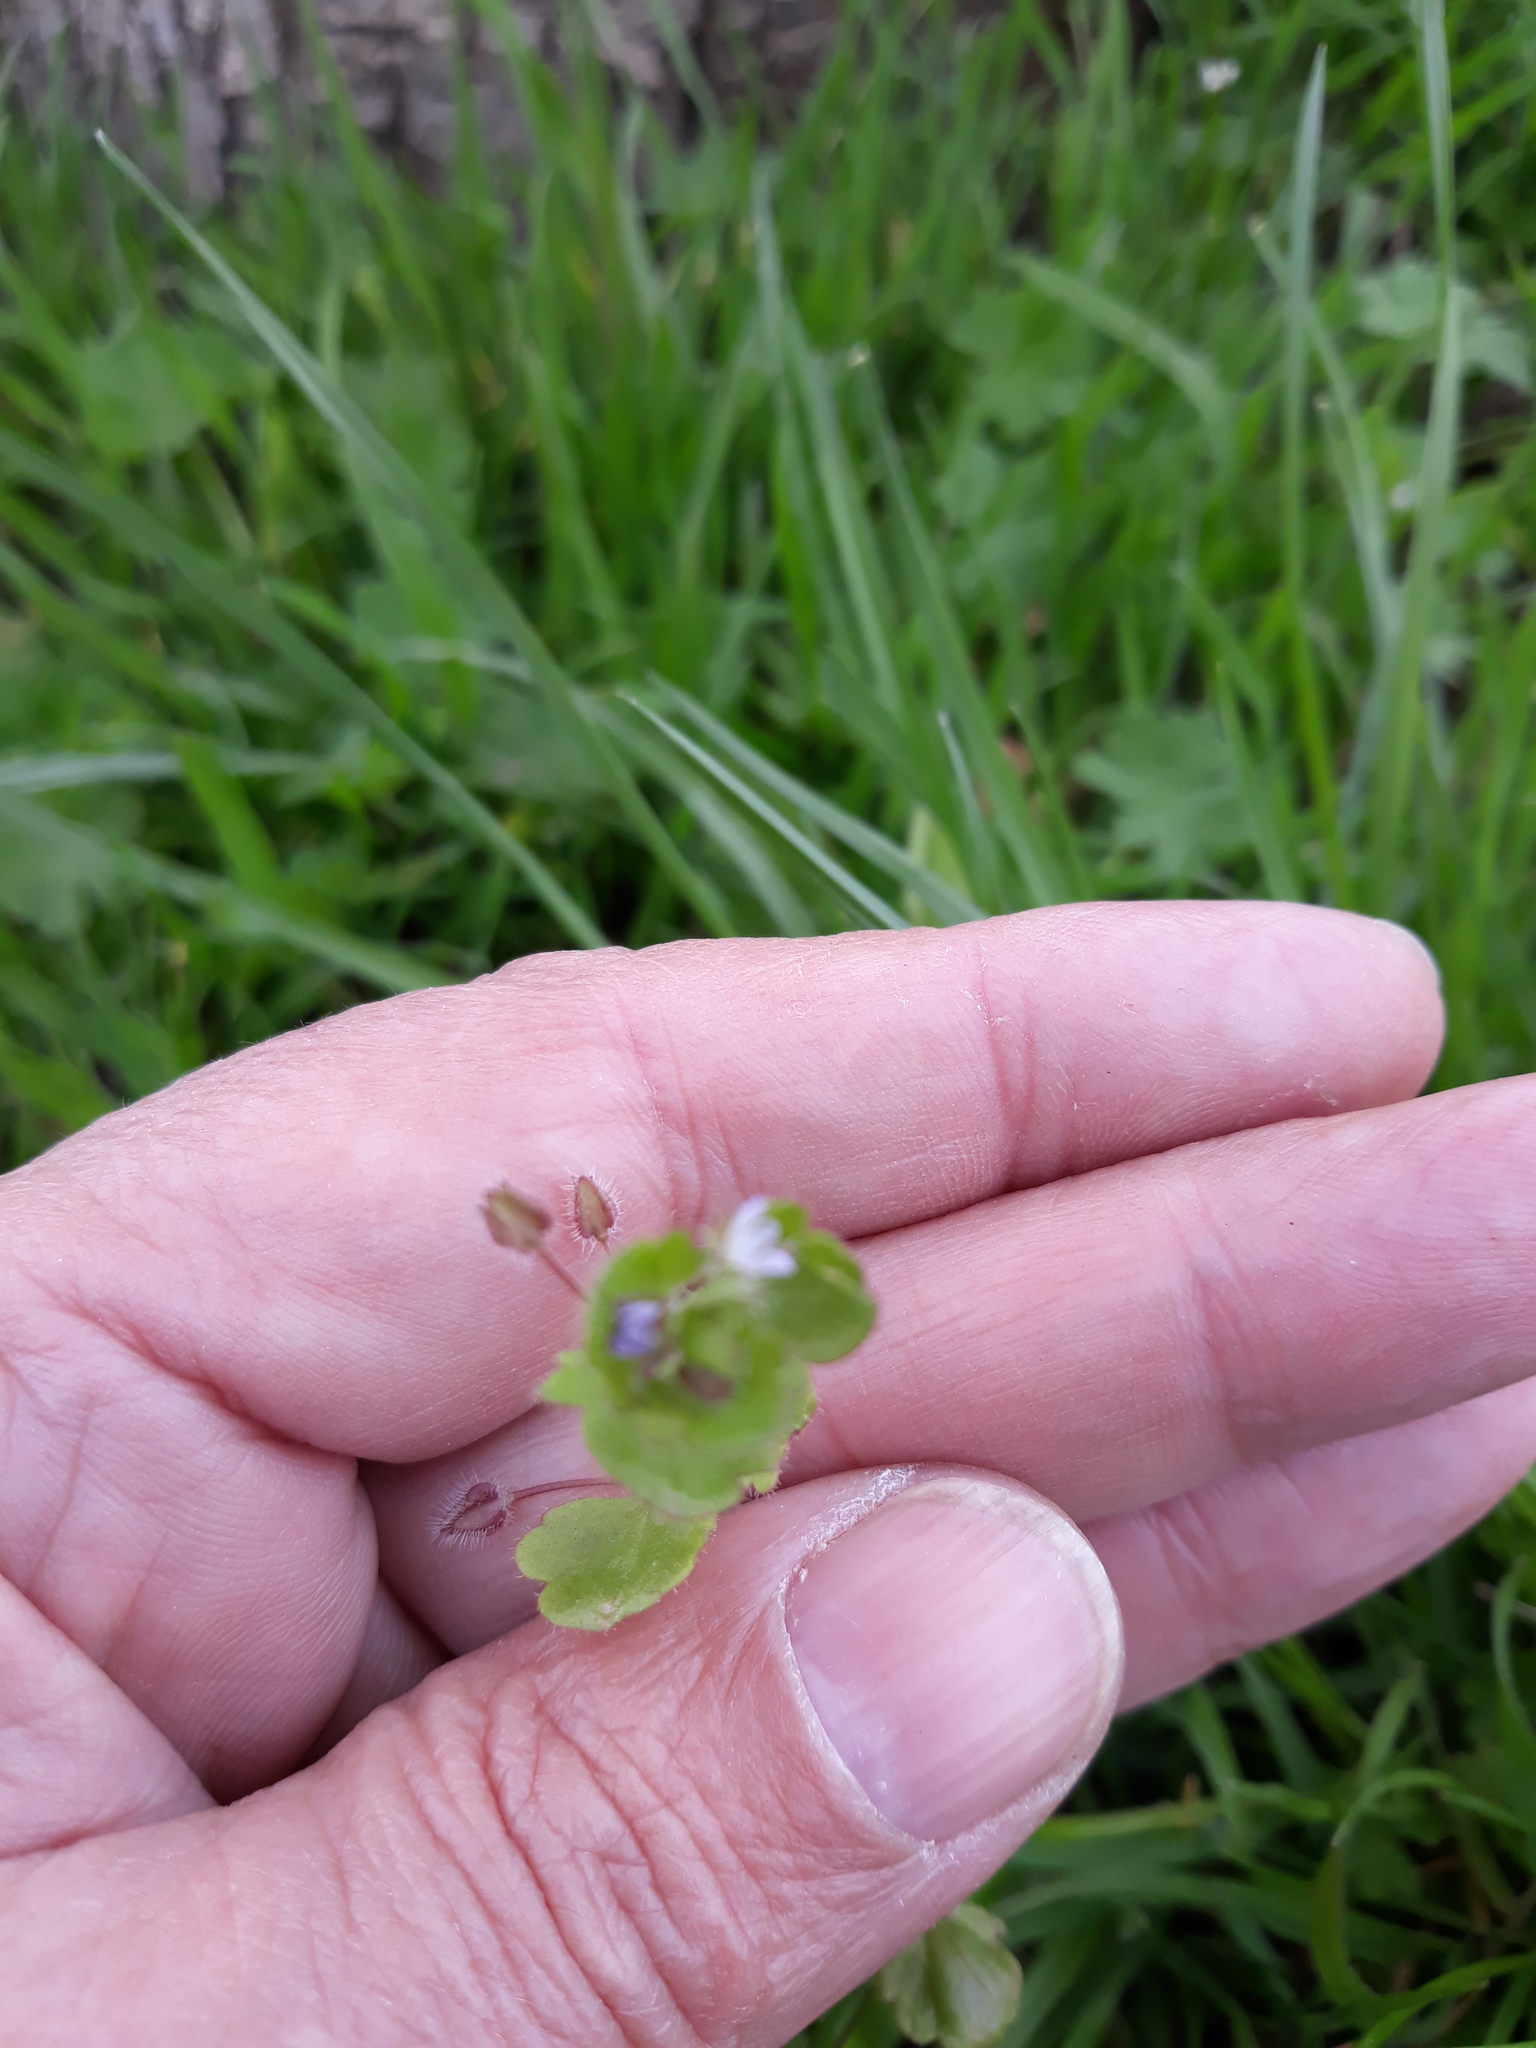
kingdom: Plantae
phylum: Tracheophyta
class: Magnoliopsida
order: Lamiales
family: Plantaginaceae
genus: Veronica
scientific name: Veronica sublobata
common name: False ivy-leaved speedwell
